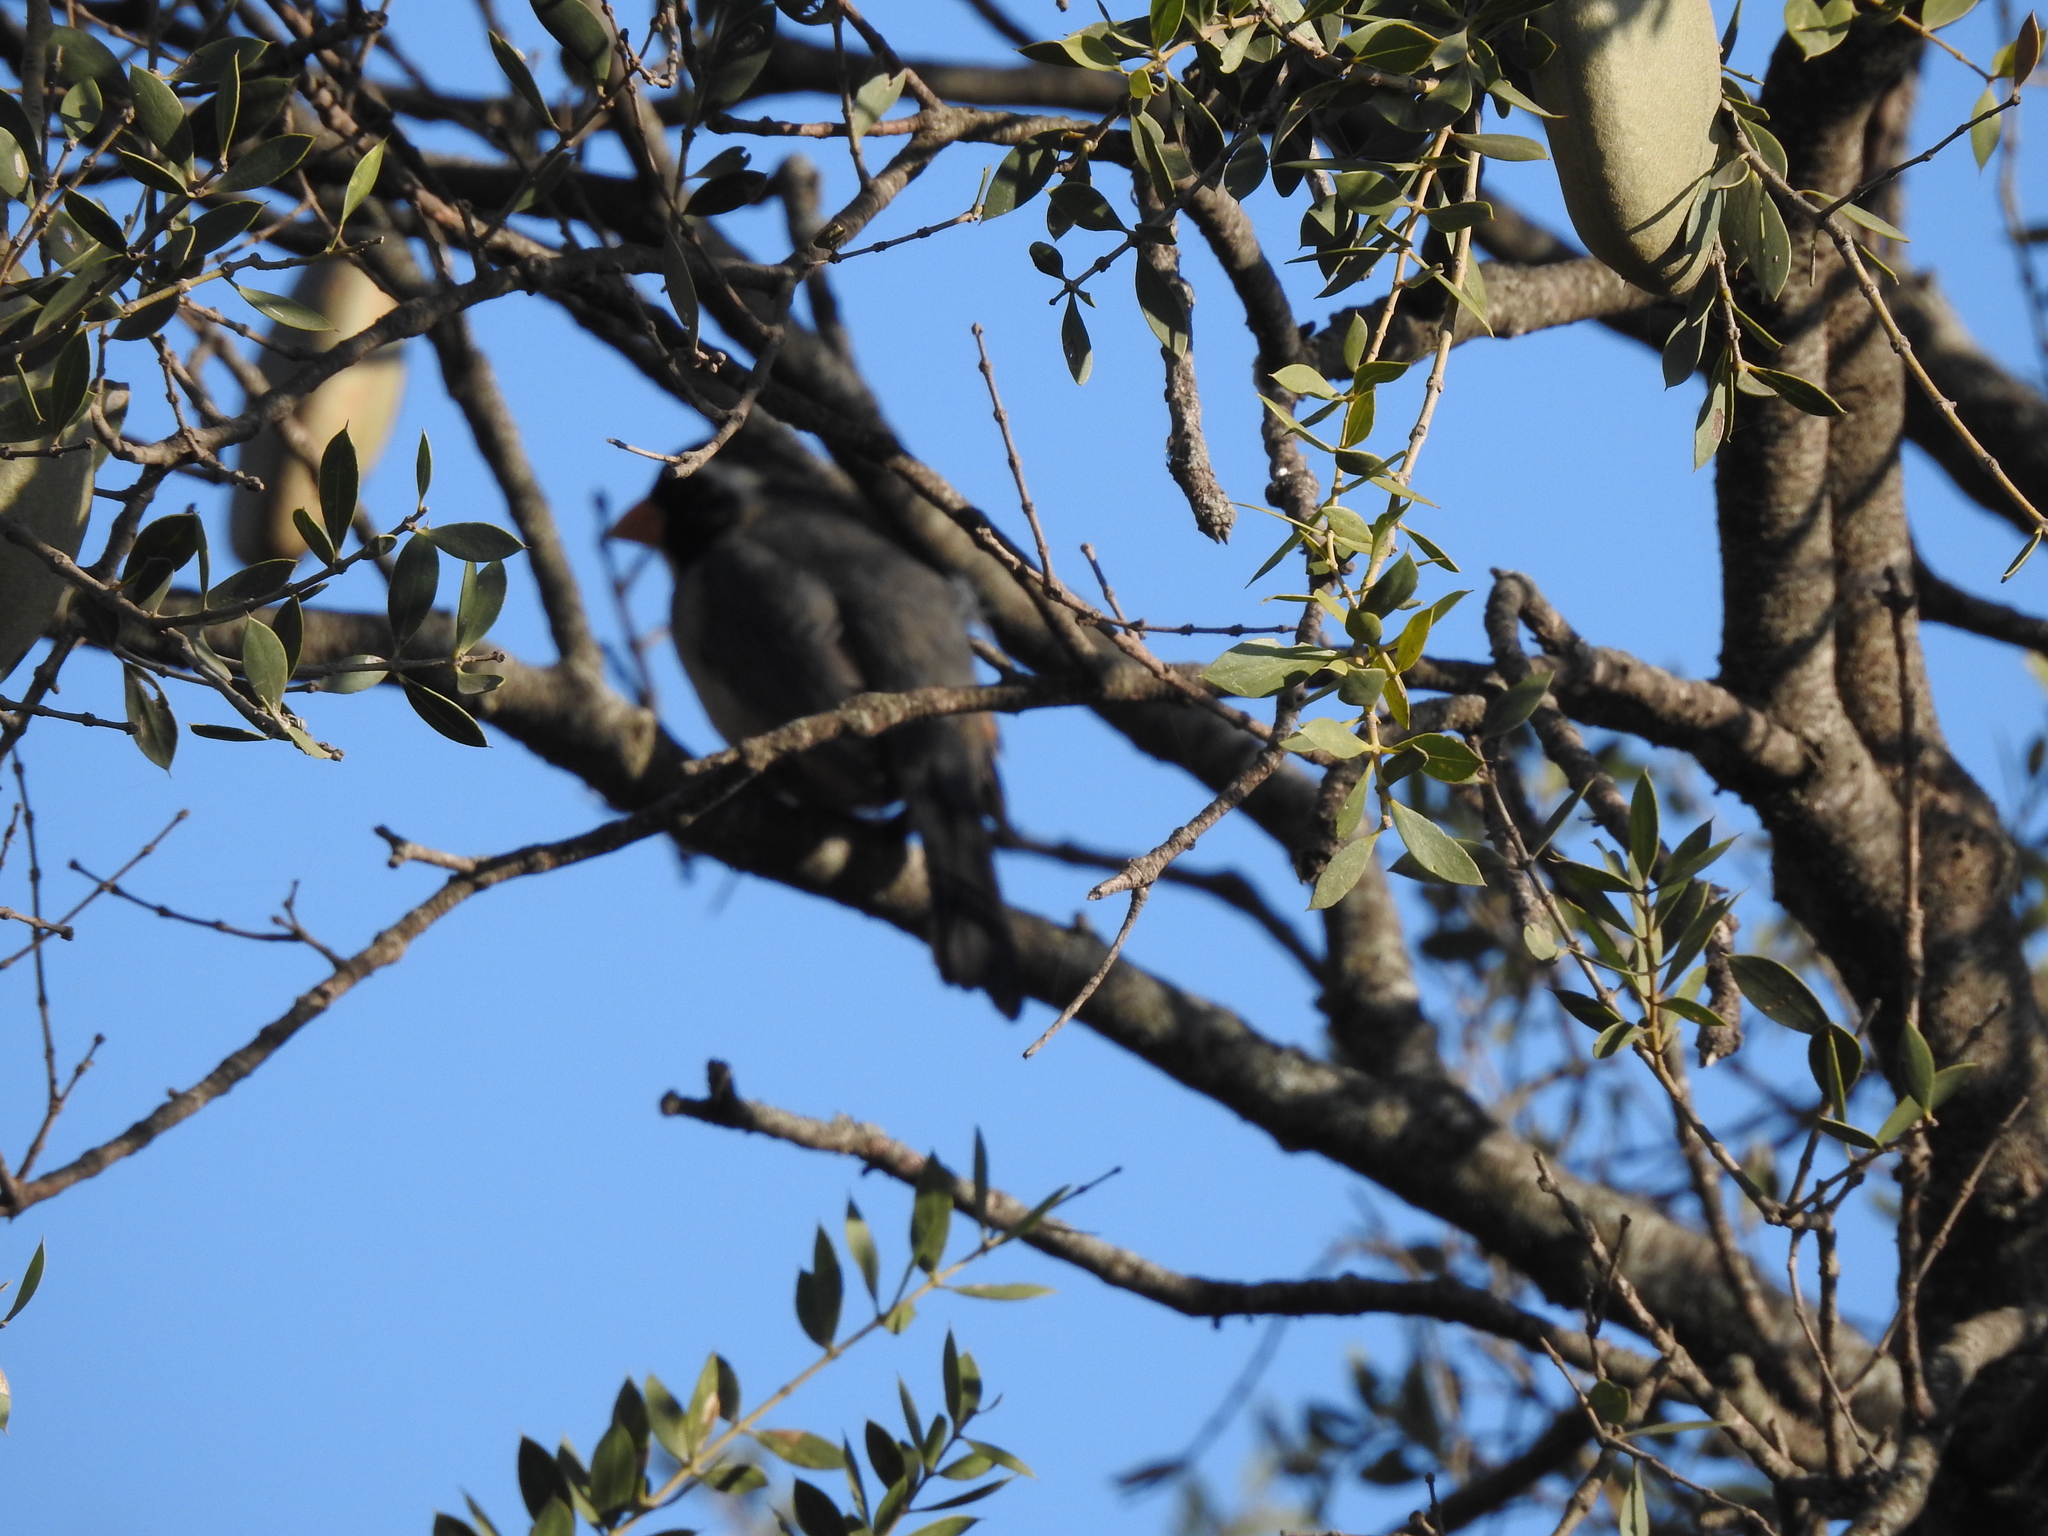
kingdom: Animalia
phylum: Chordata
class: Aves
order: Passeriformes
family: Thraupidae
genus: Saltator
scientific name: Saltator aurantiirostris
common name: Golden-billed saltator
